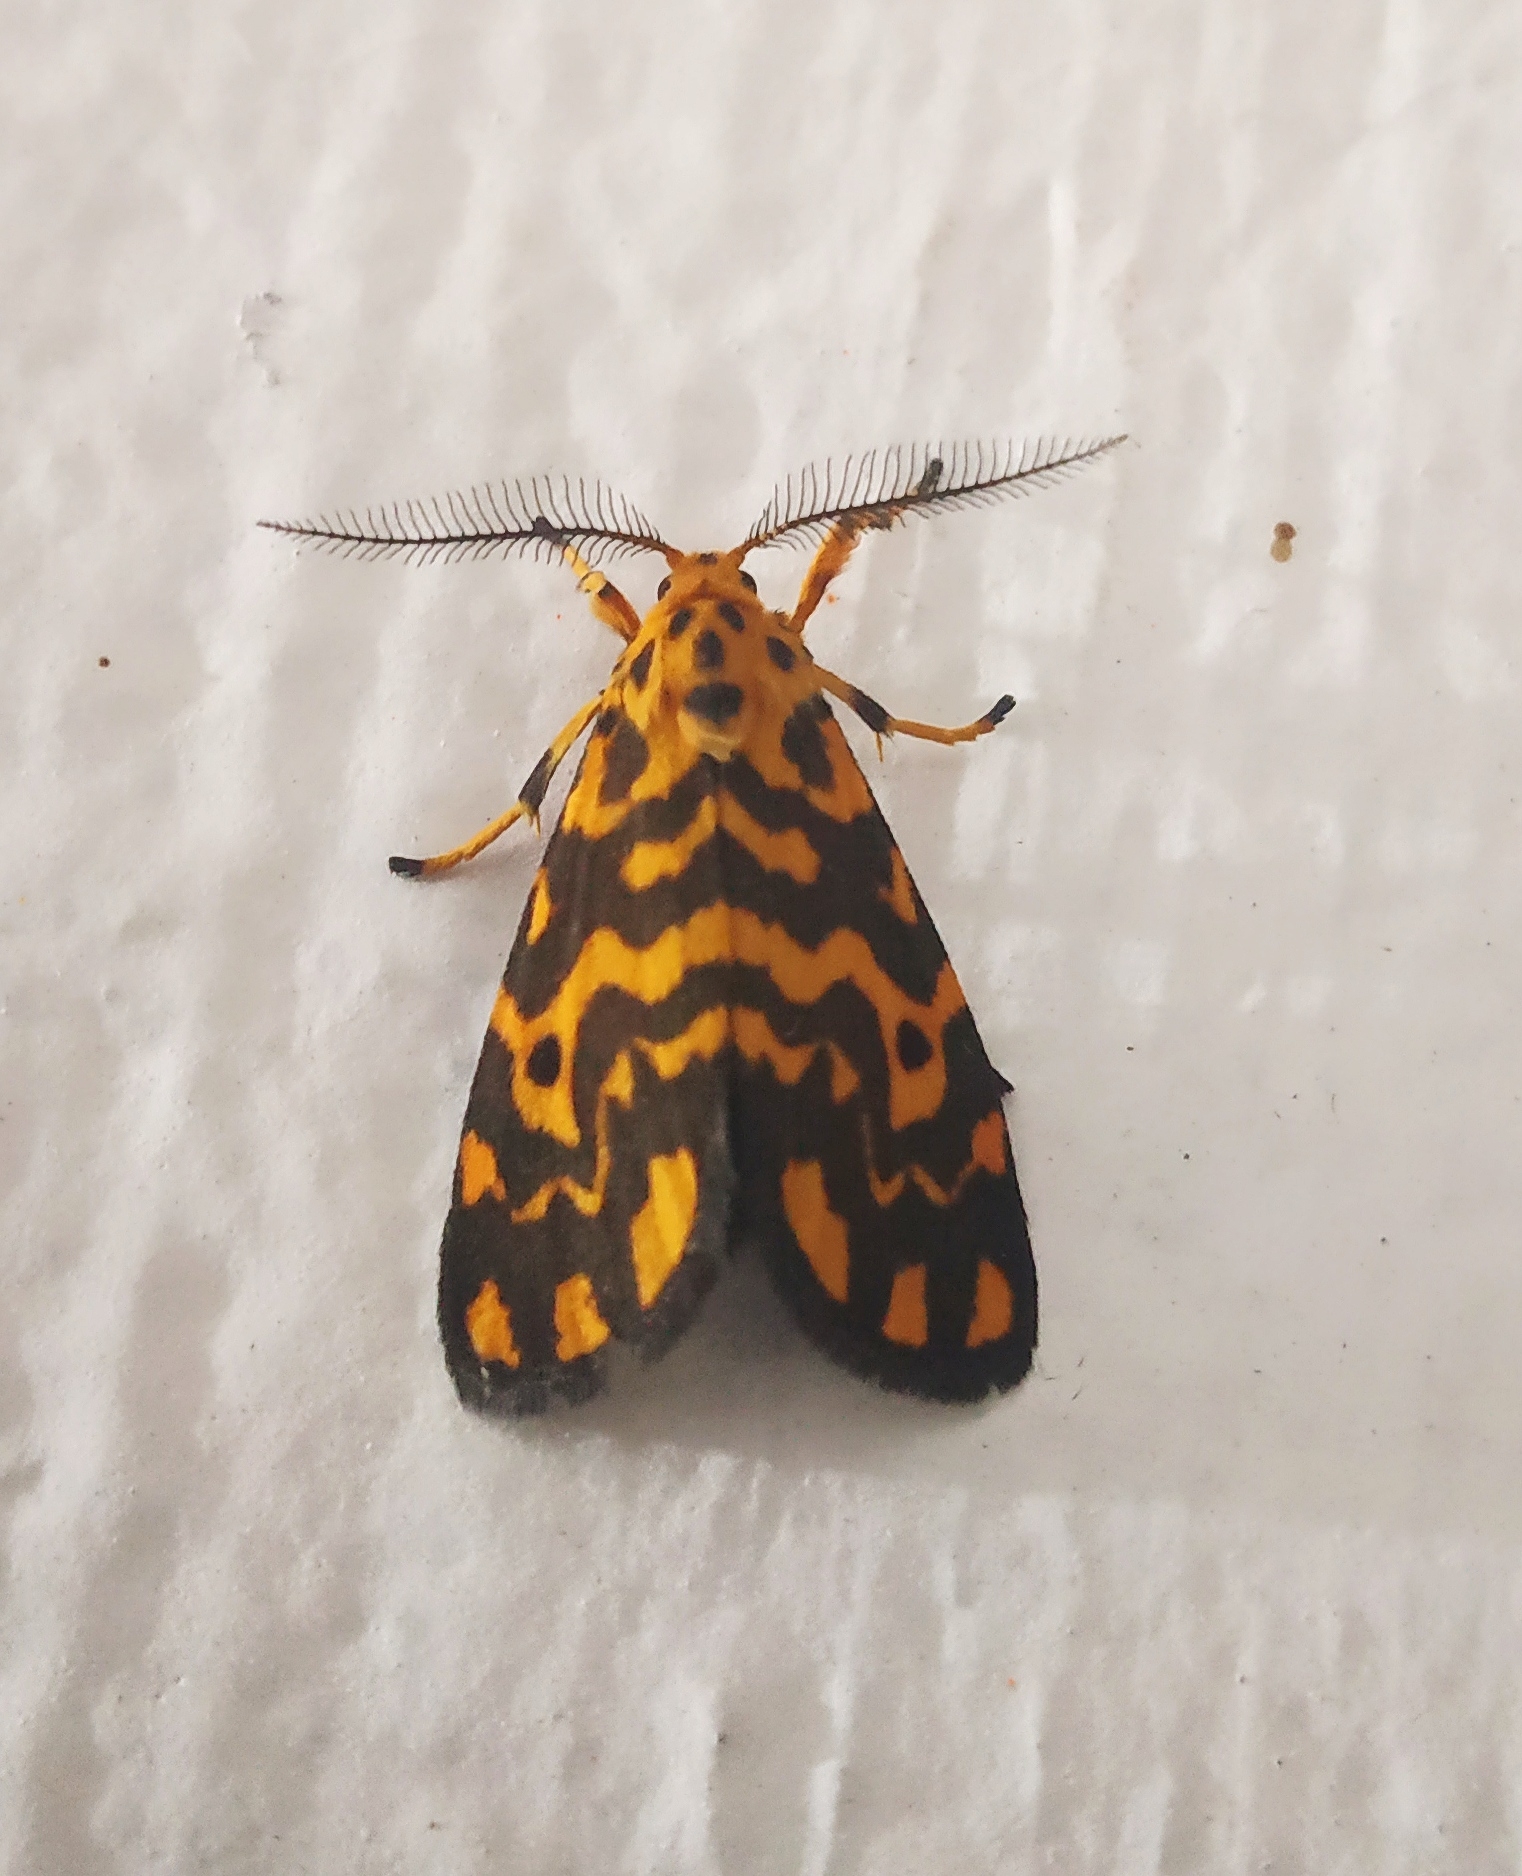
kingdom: Animalia
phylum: Arthropoda
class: Insecta
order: Lepidoptera
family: Erebidae
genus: Nepita
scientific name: Nepita conferta
